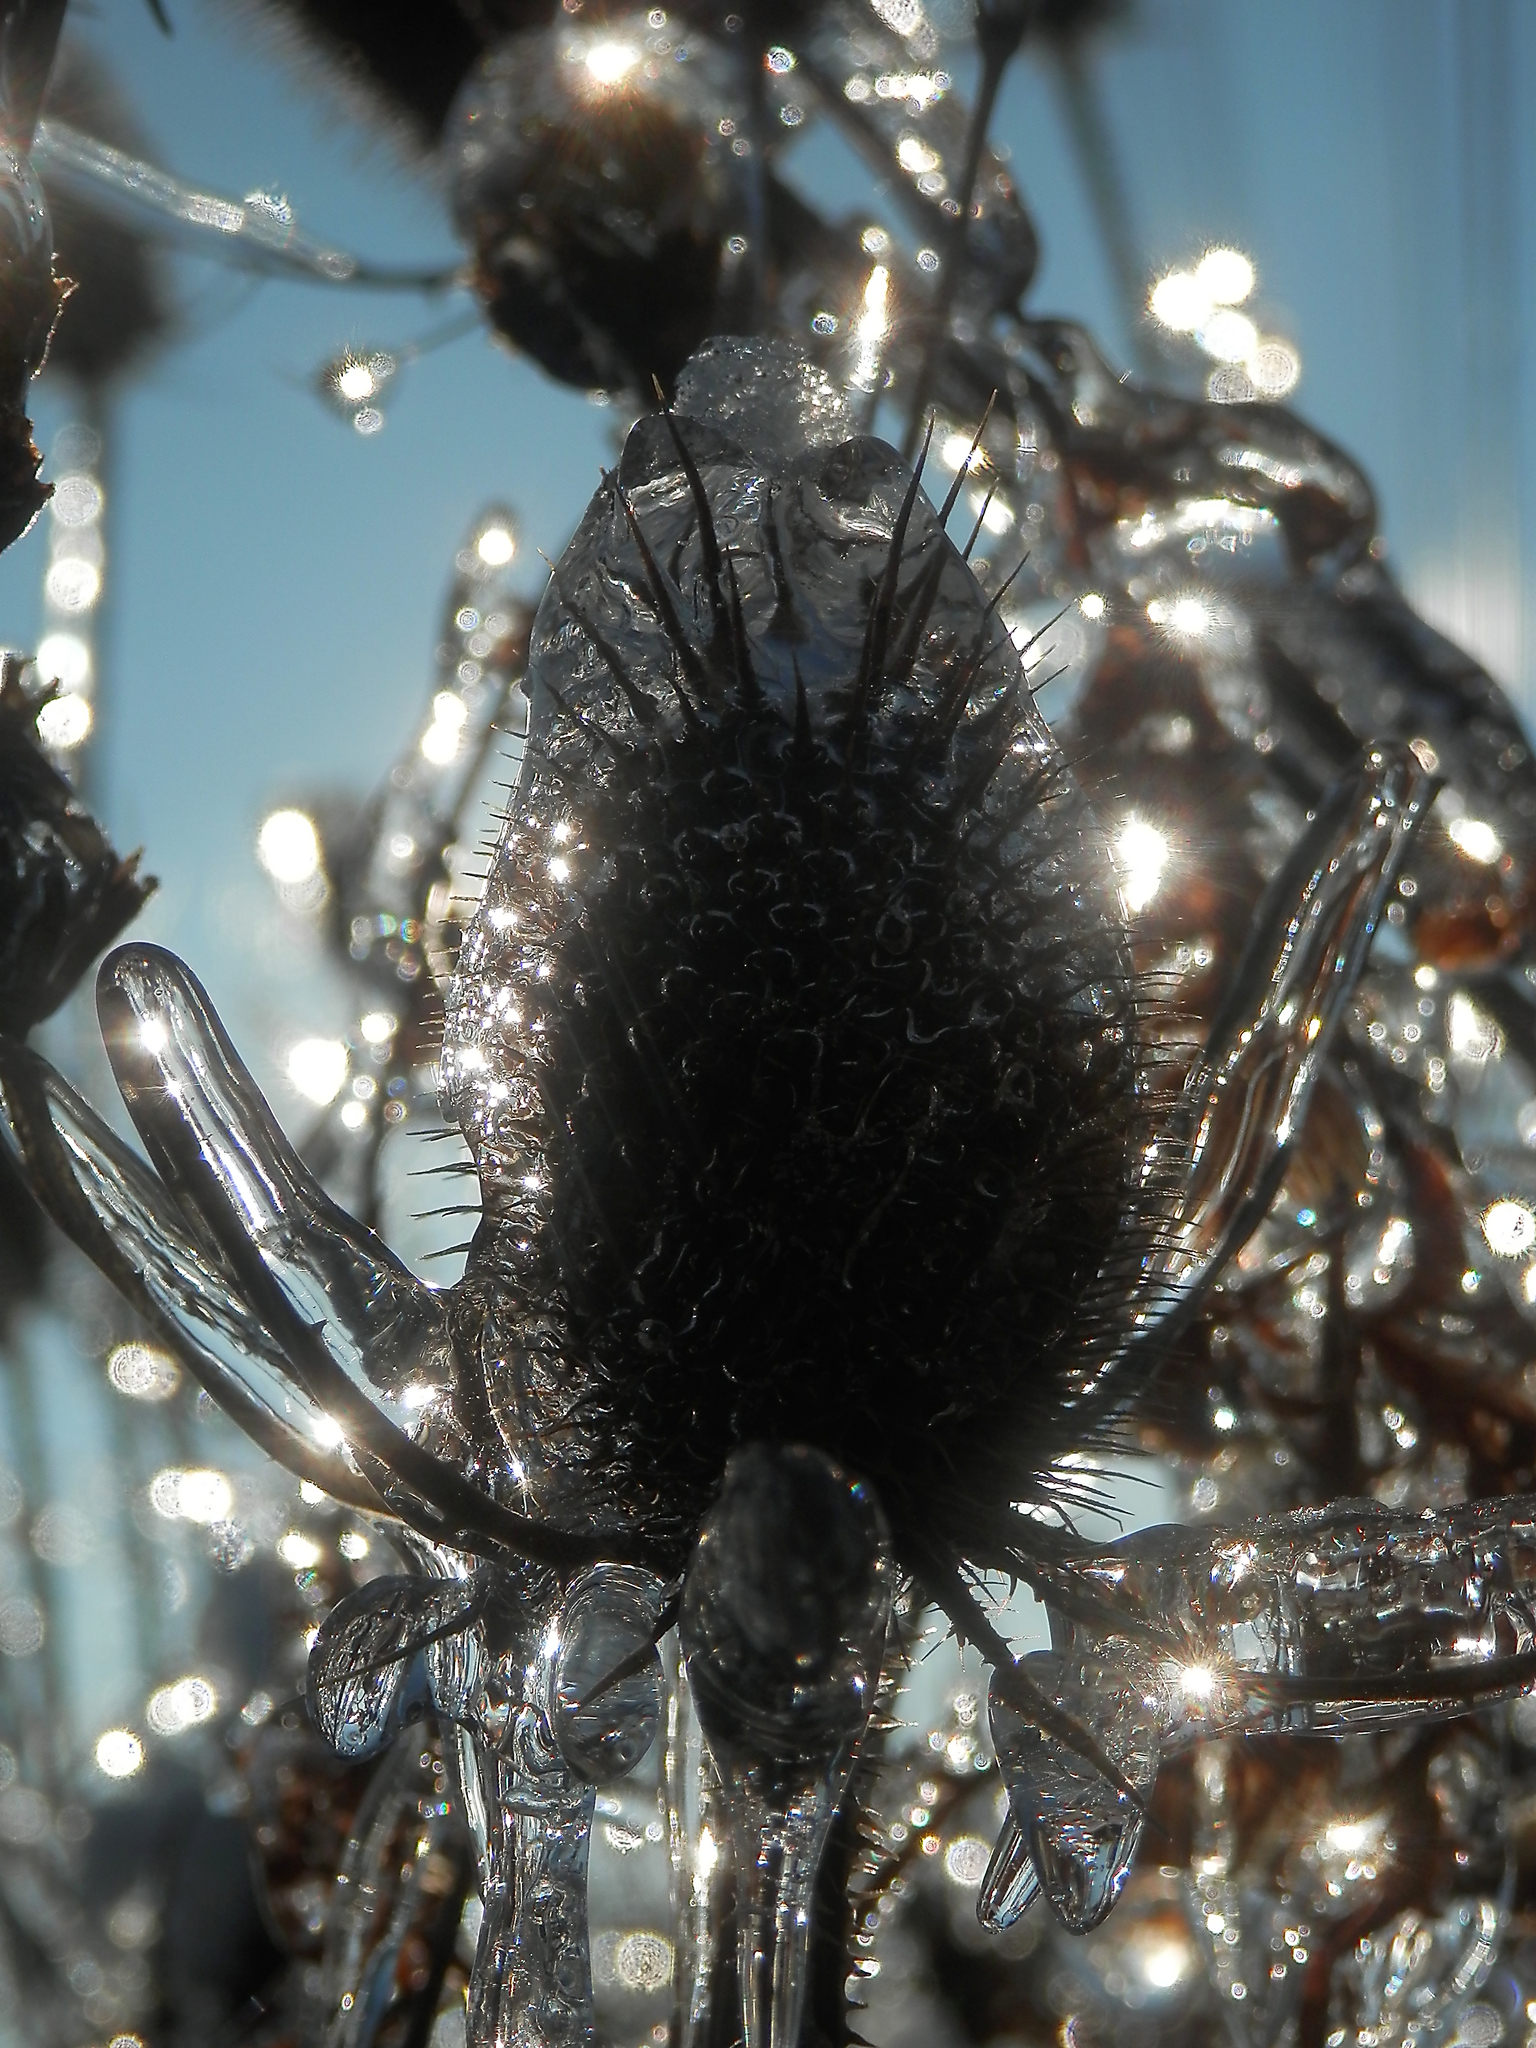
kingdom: Plantae
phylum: Tracheophyta
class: Magnoliopsida
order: Dipsacales
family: Caprifoliaceae
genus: Dipsacus
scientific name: Dipsacus fullonum
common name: Teasel
